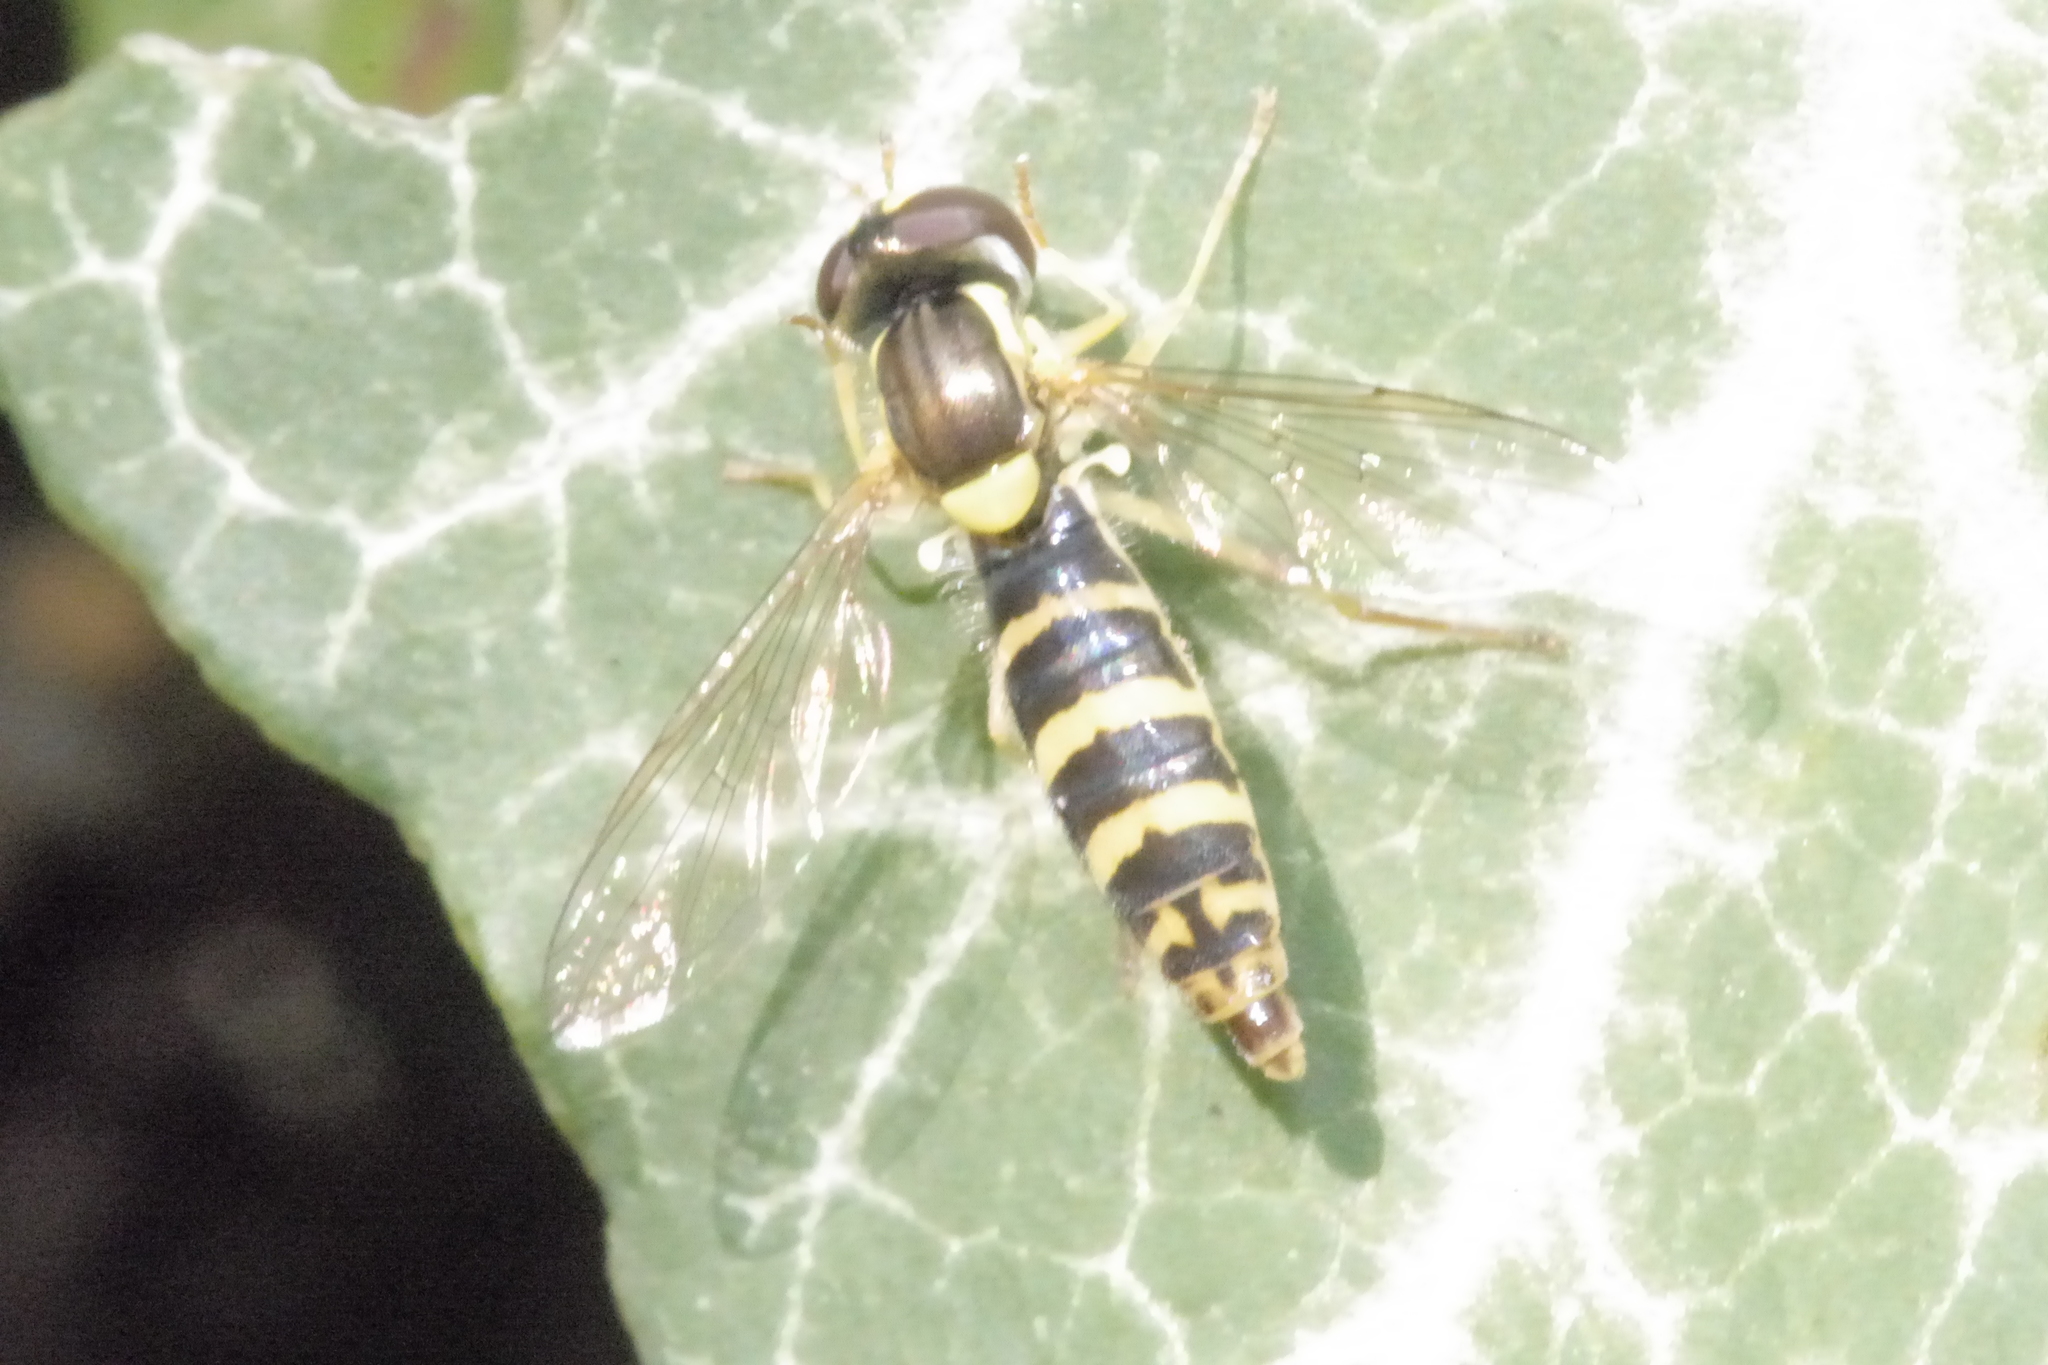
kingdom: Animalia
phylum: Arthropoda
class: Insecta
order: Diptera
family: Syrphidae
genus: Sphaerophoria
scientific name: Sphaerophoria
